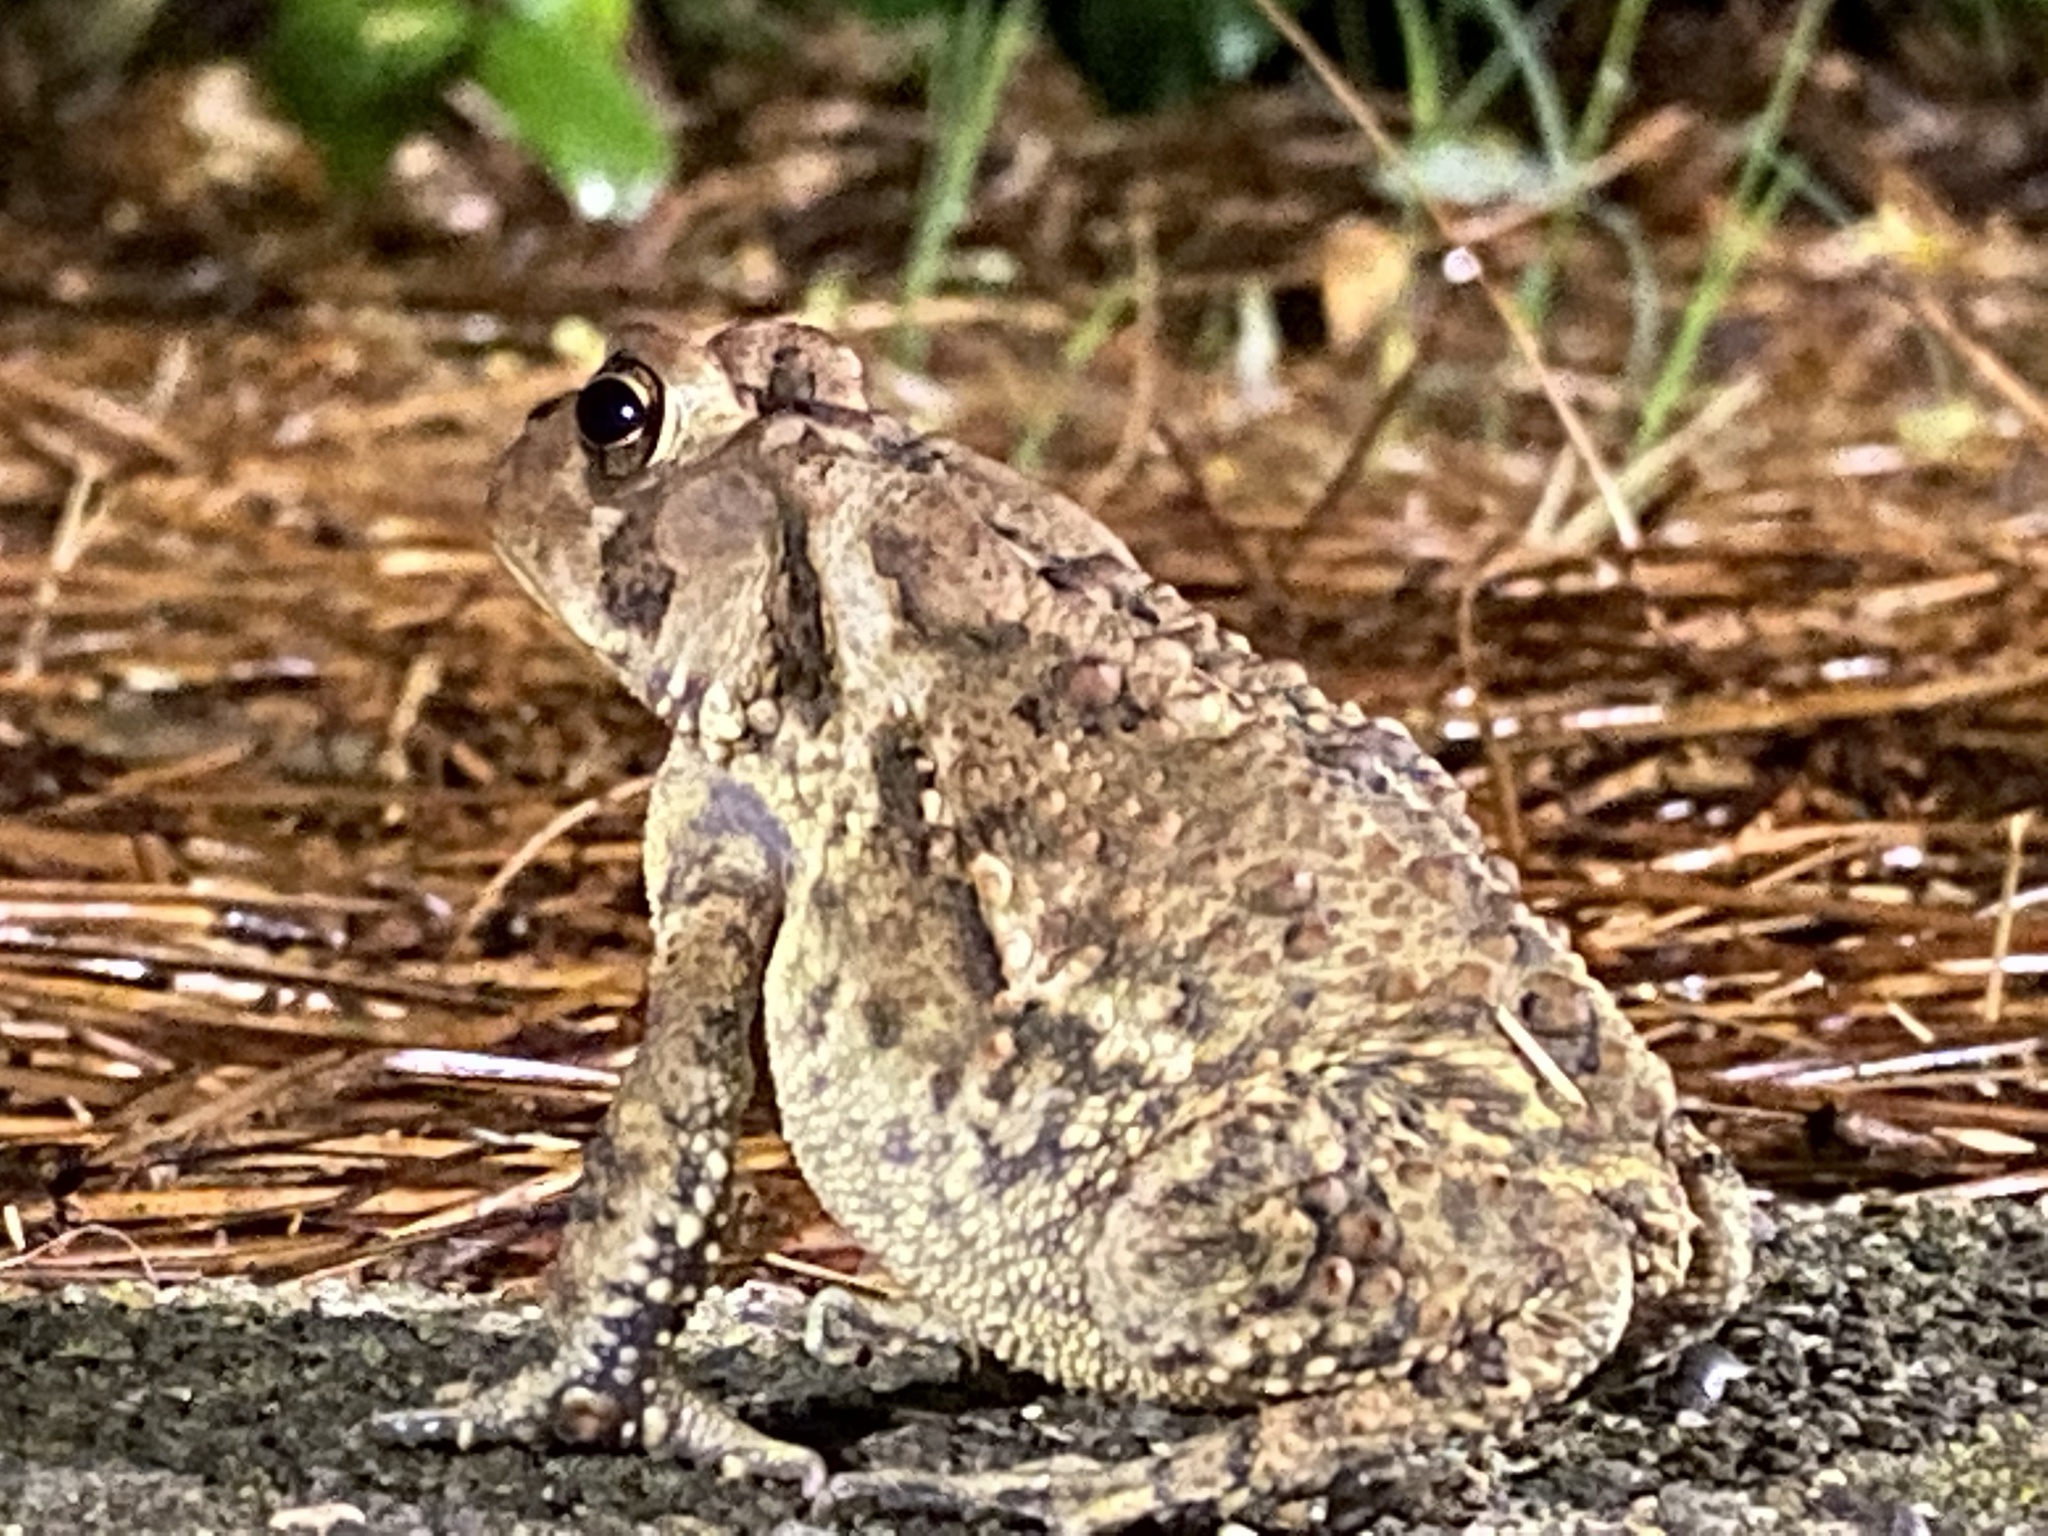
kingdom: Animalia
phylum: Chordata
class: Amphibia
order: Anura
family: Bufonidae
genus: Anaxyrus
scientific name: Anaxyrus americanus
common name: American toad
